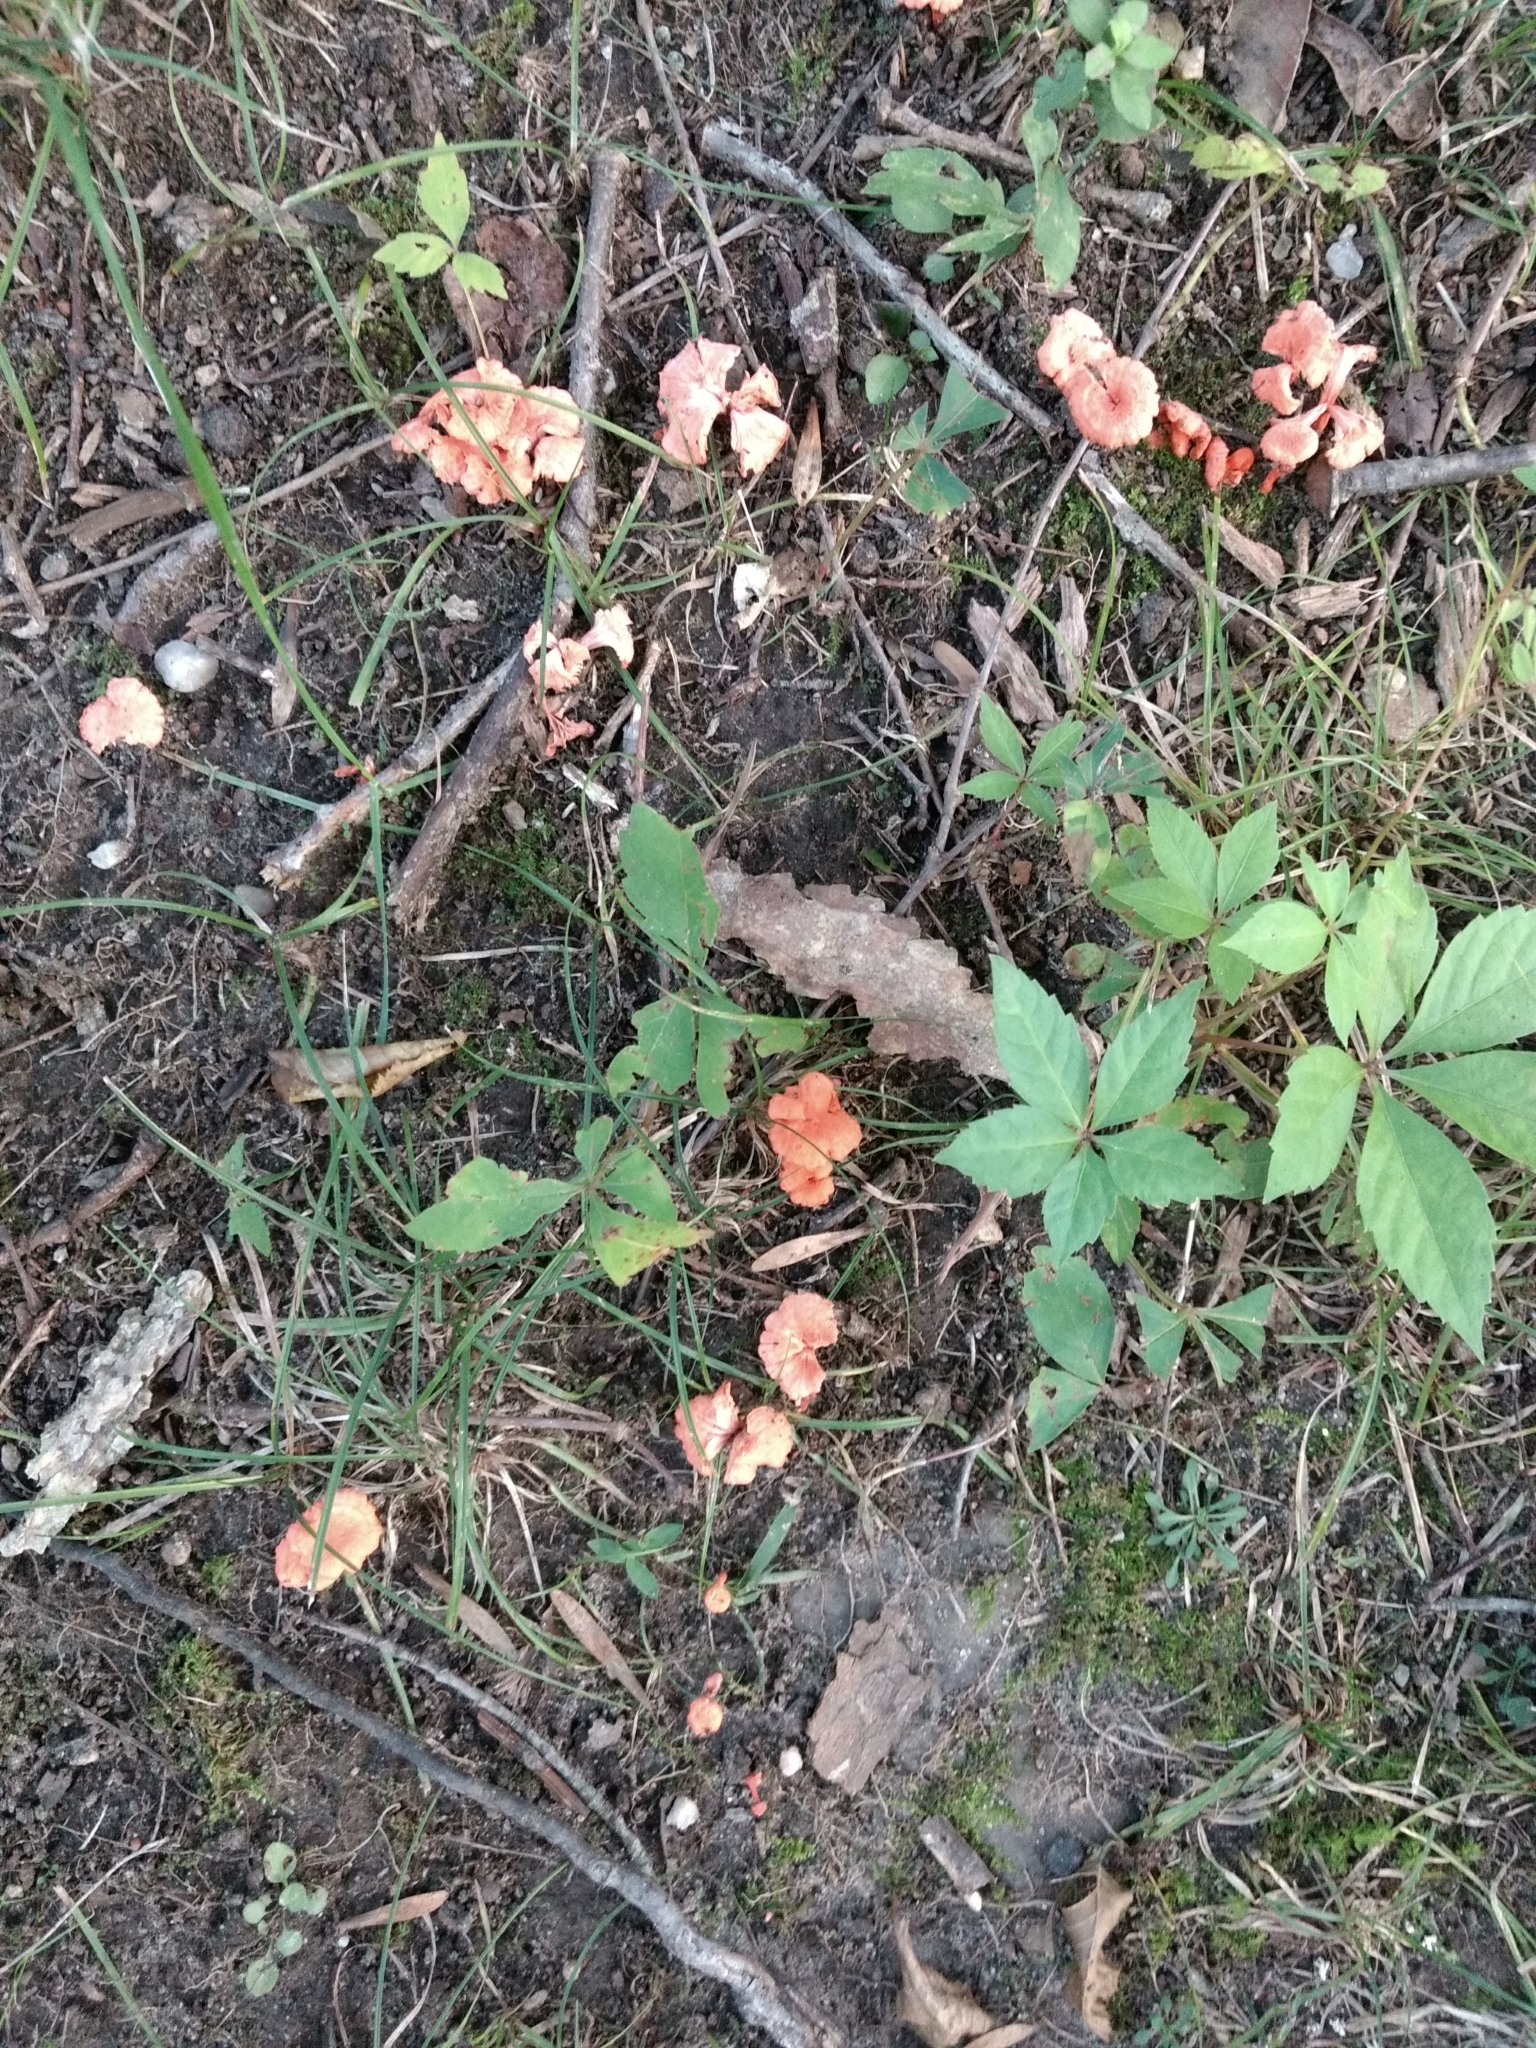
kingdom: Fungi
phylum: Basidiomycota
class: Agaricomycetes
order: Cantharellales
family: Hydnaceae
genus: Cantharellus
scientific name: Cantharellus cinnabarinus
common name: Cinnabar chanterelle
